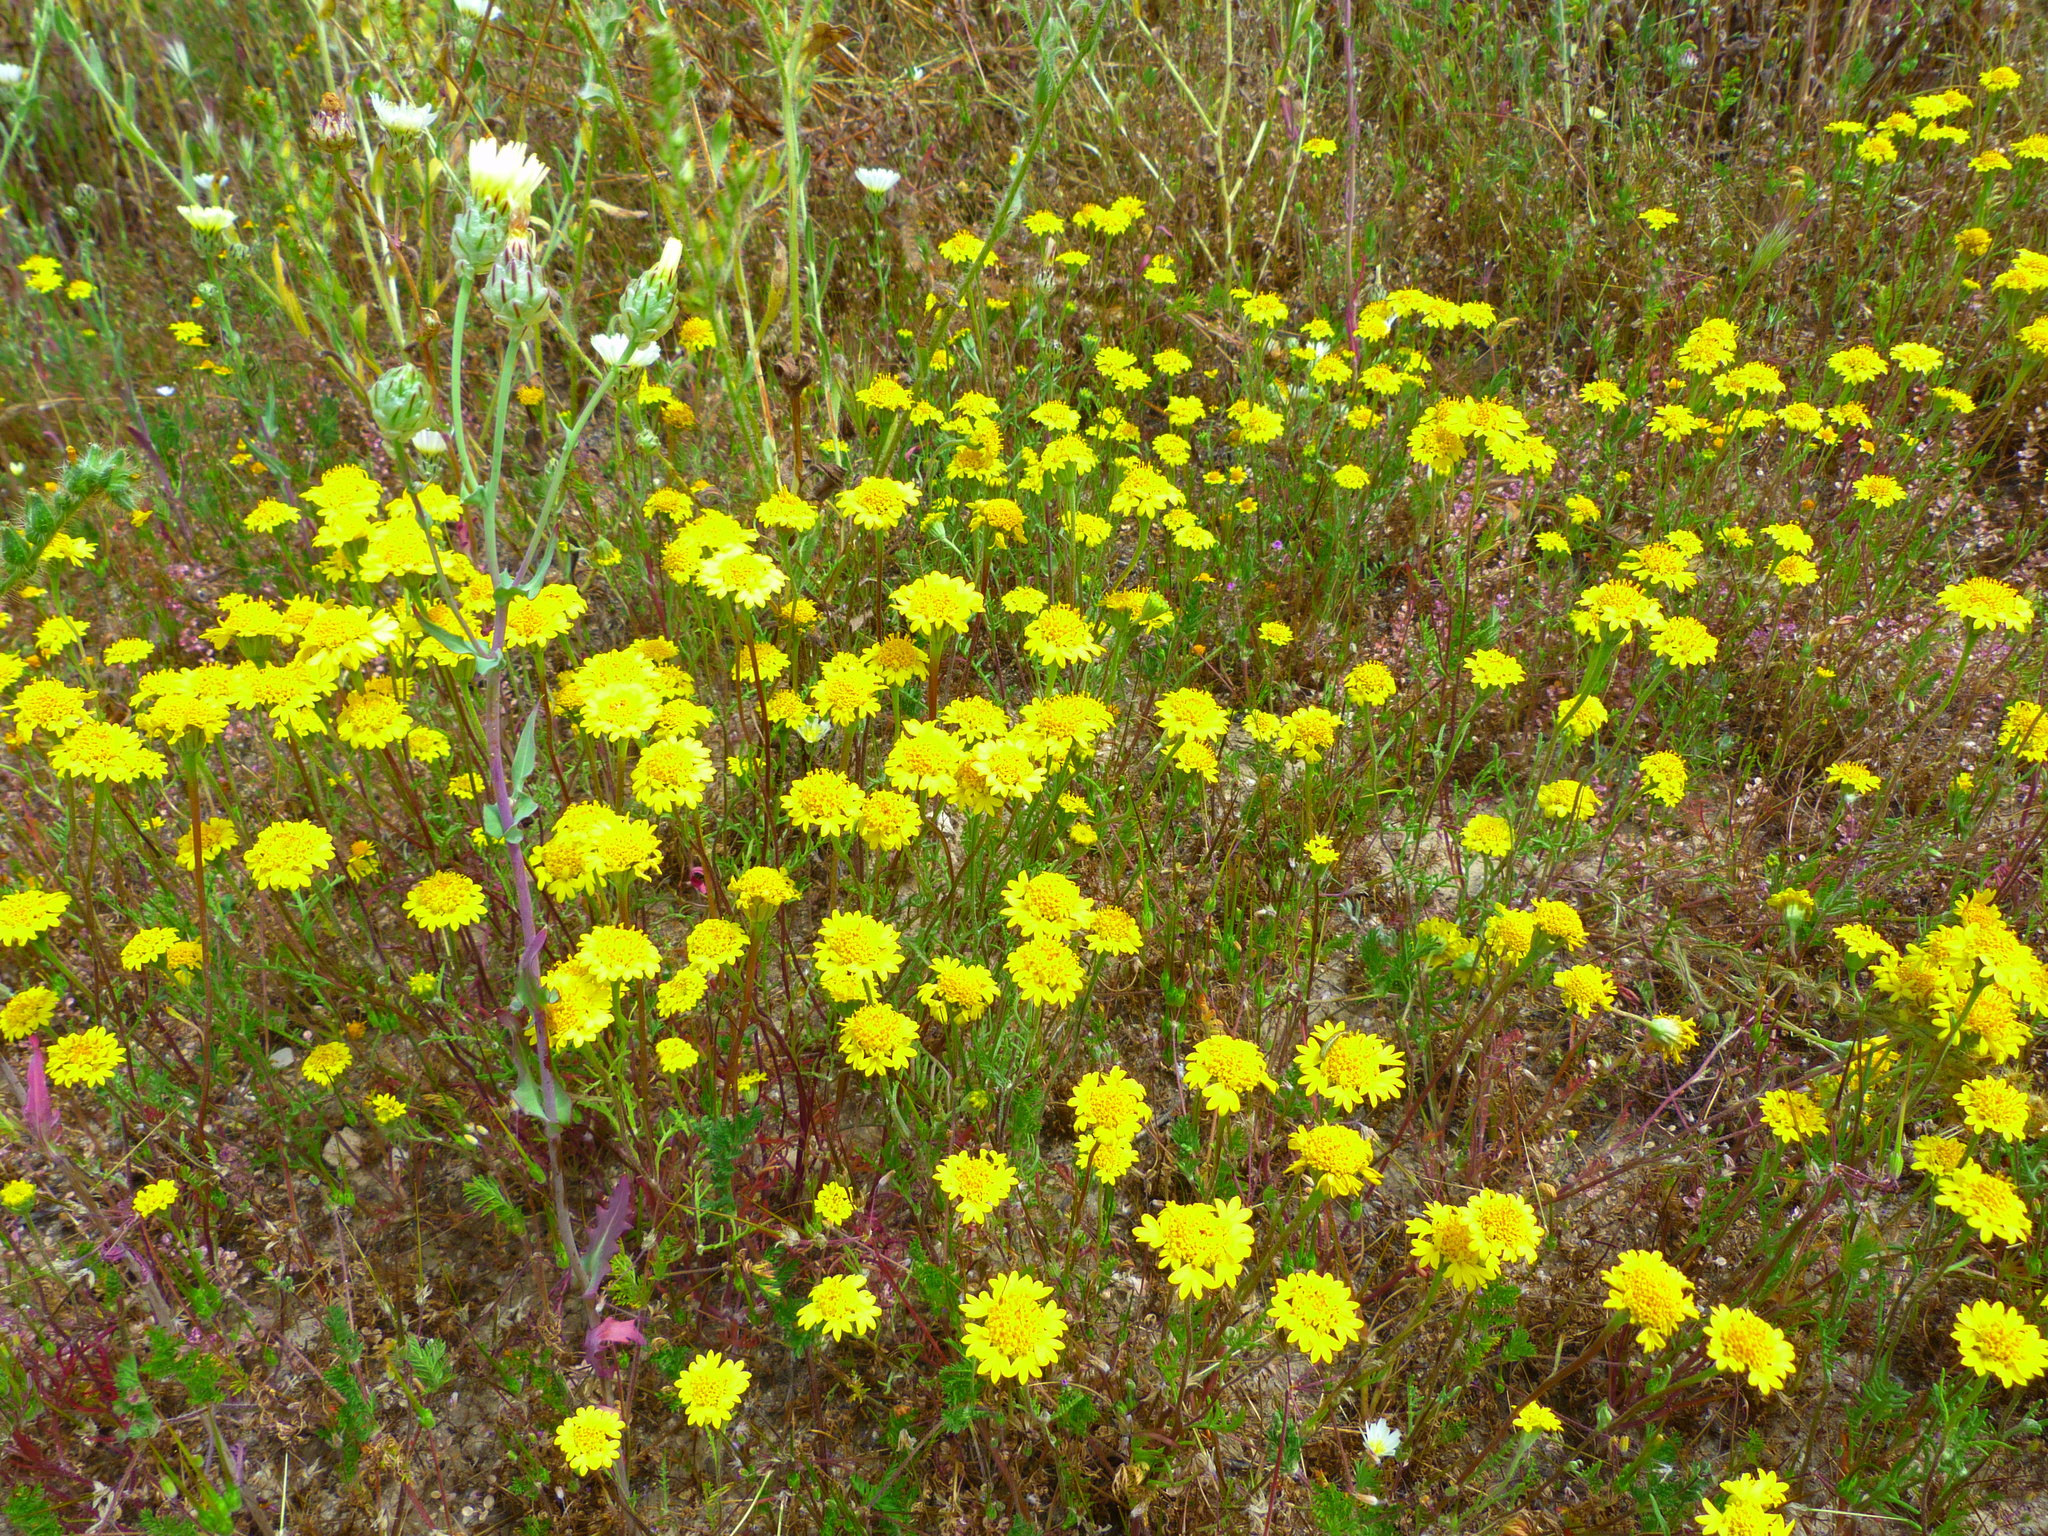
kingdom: Plantae
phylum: Tracheophyta
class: Magnoliopsida
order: Asterales
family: Asteraceae
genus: Chaenactis
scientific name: Chaenactis glabriuscula
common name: Yellow pincushion
